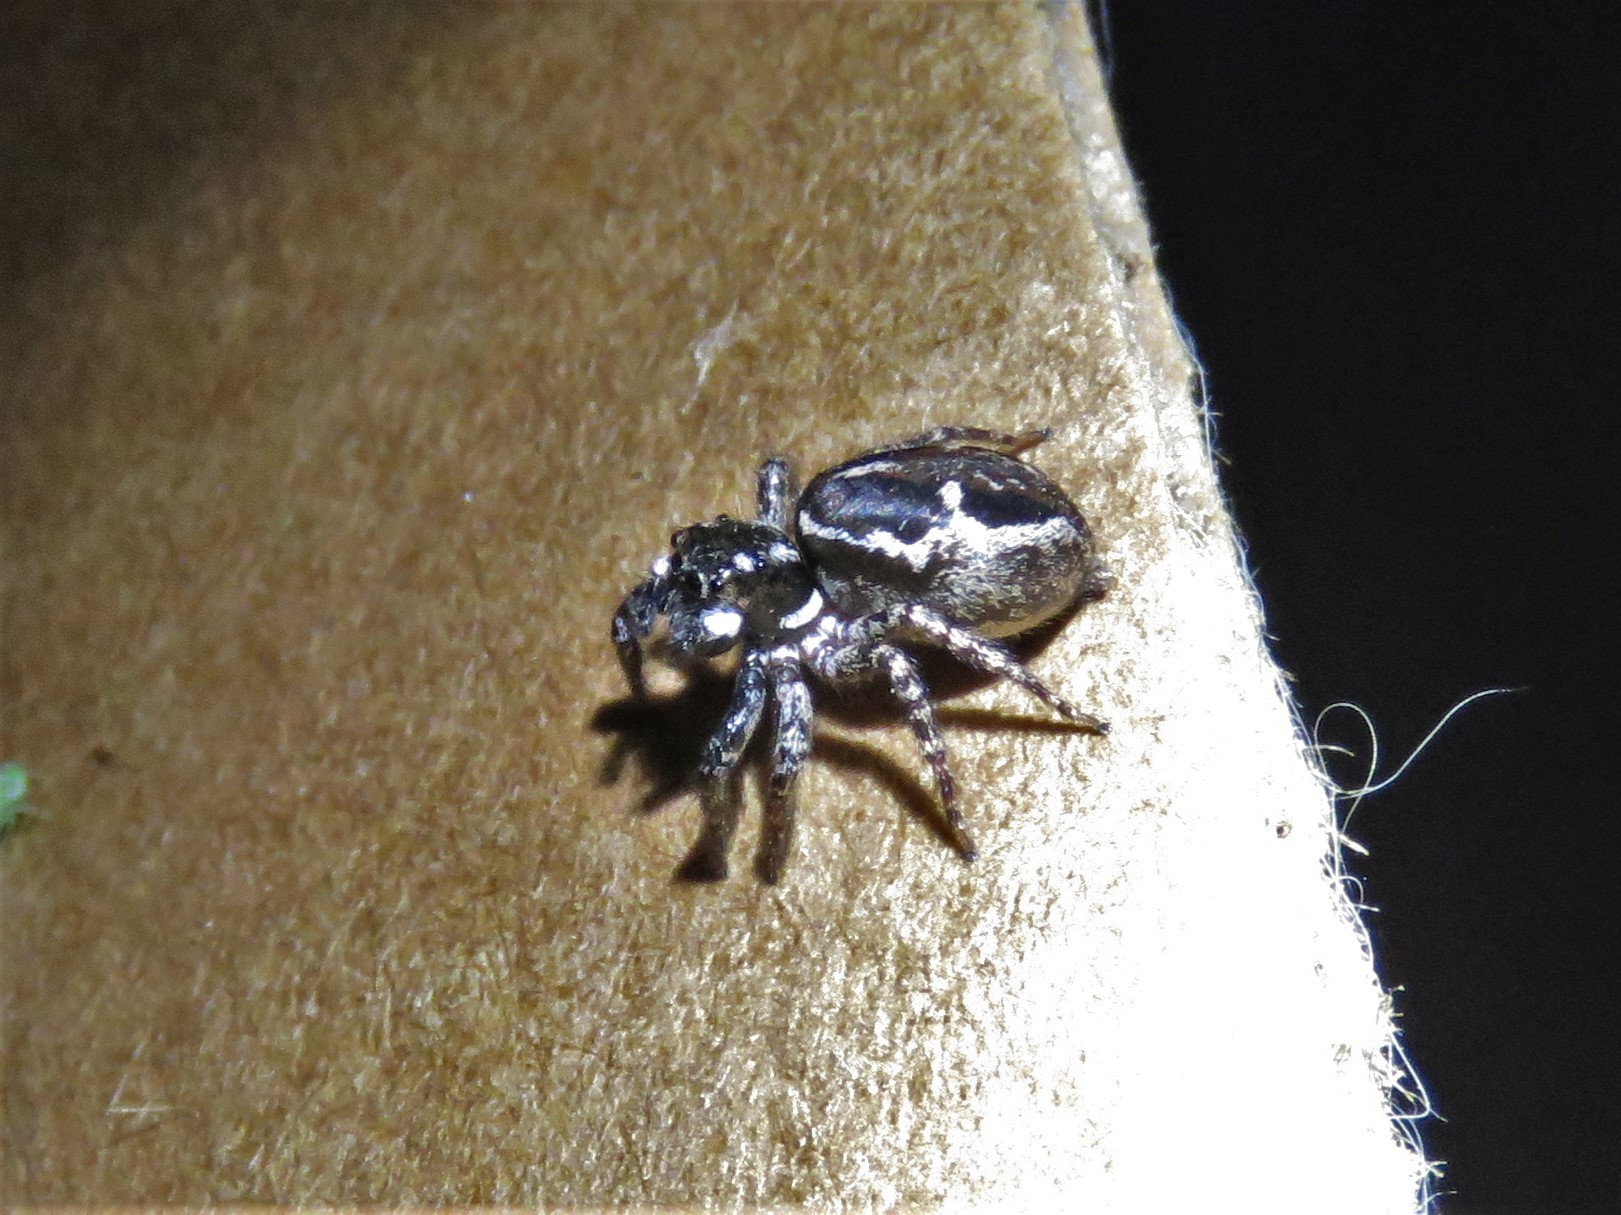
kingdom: Animalia
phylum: Arthropoda
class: Arachnida
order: Araneae
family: Salticidae
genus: Anasaitis
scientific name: Anasaitis canosa
